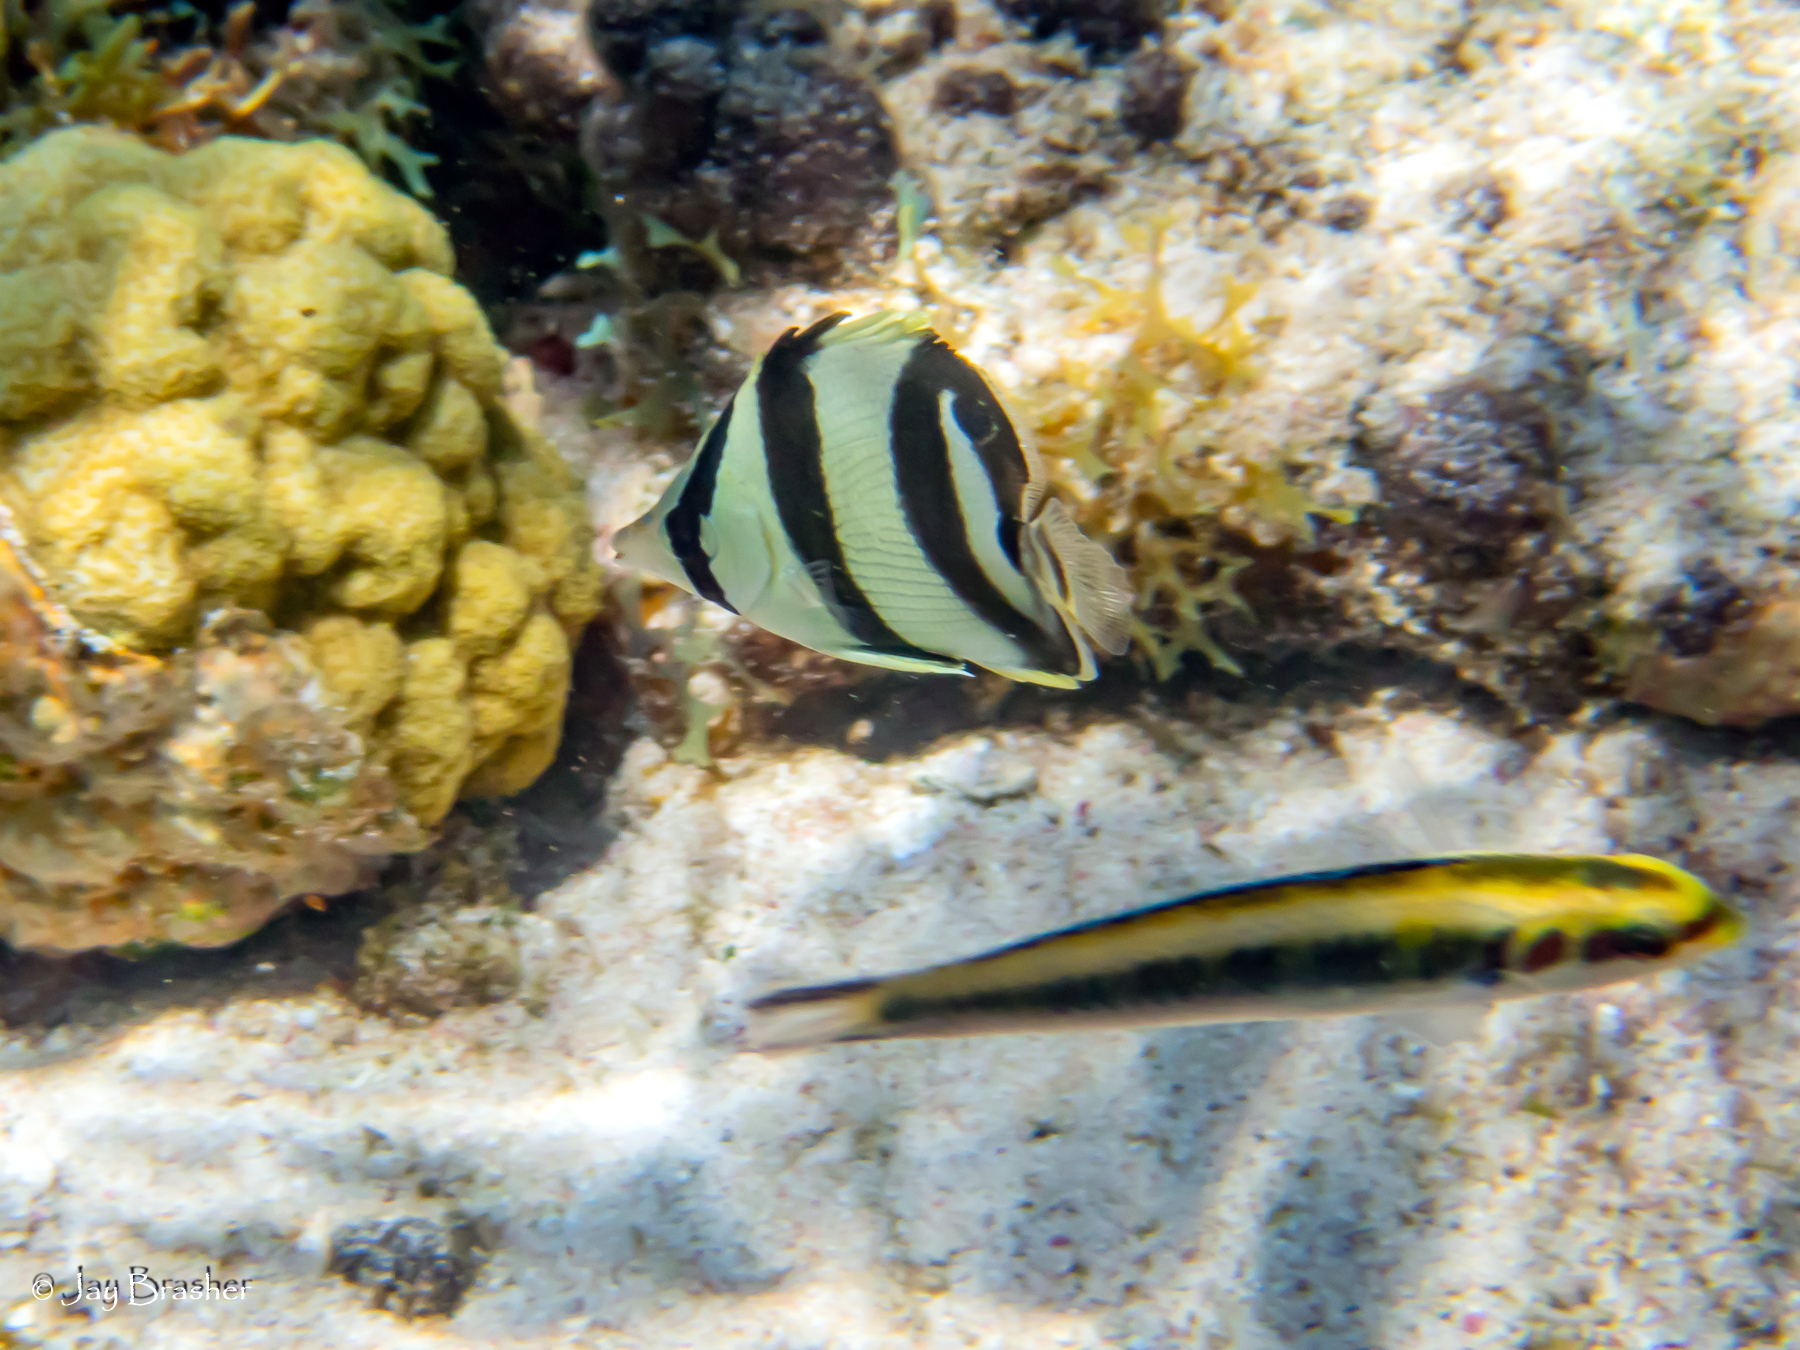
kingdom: Animalia
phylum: Chordata
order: Perciformes
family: Labridae
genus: Thalassoma
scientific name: Thalassoma bifasciatum
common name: Bluehead wrasse
